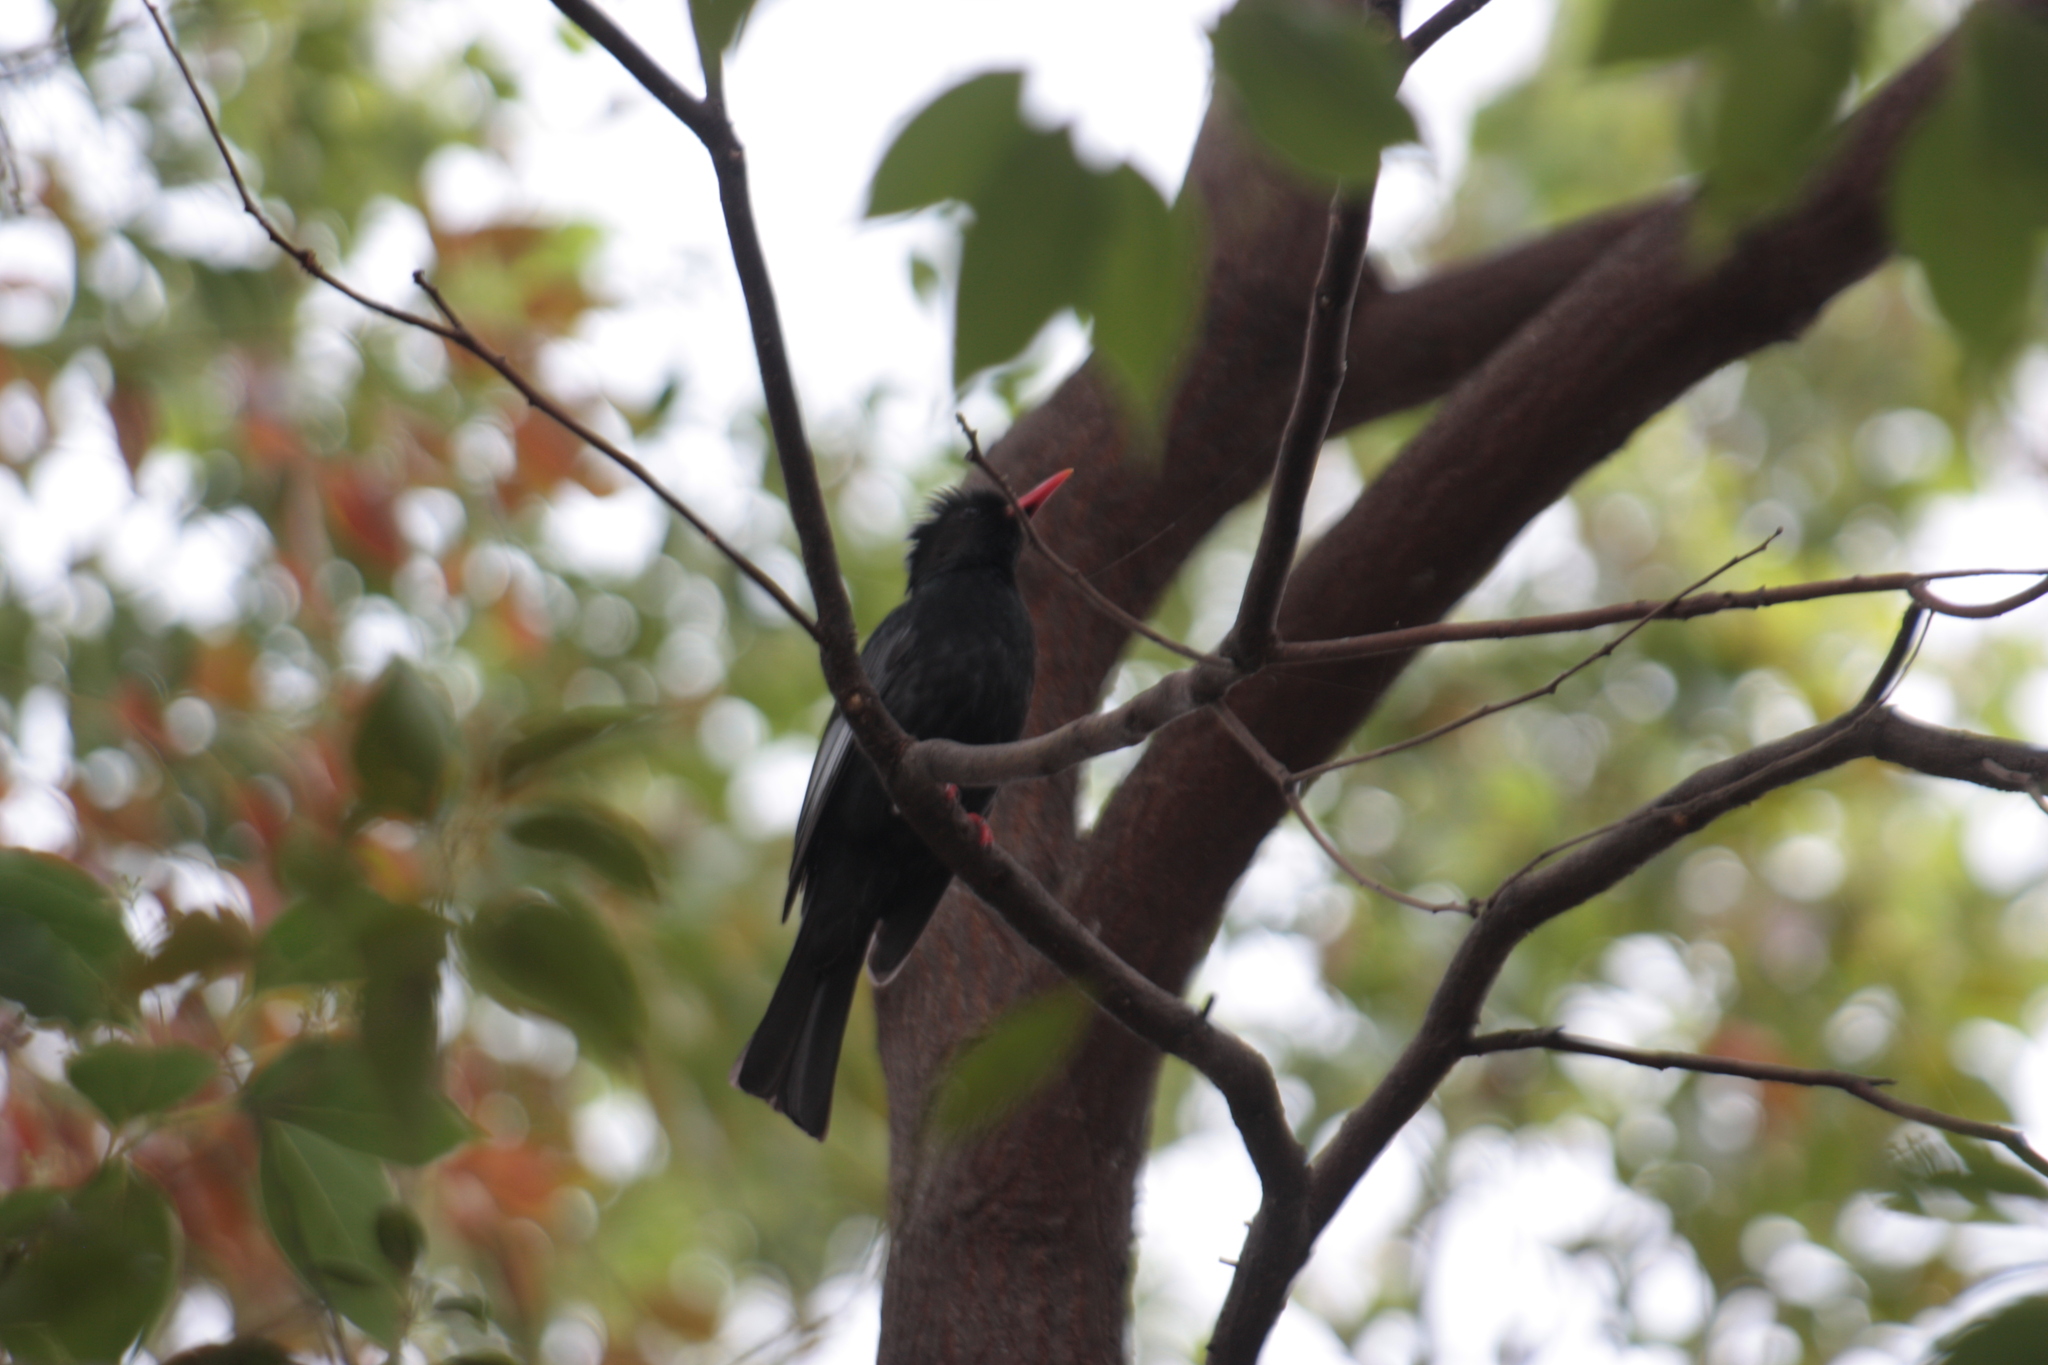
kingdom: Animalia
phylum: Chordata
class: Aves
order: Passeriformes
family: Pycnonotidae
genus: Hypsipetes
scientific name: Hypsipetes leucocephalus
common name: Black bulbul
